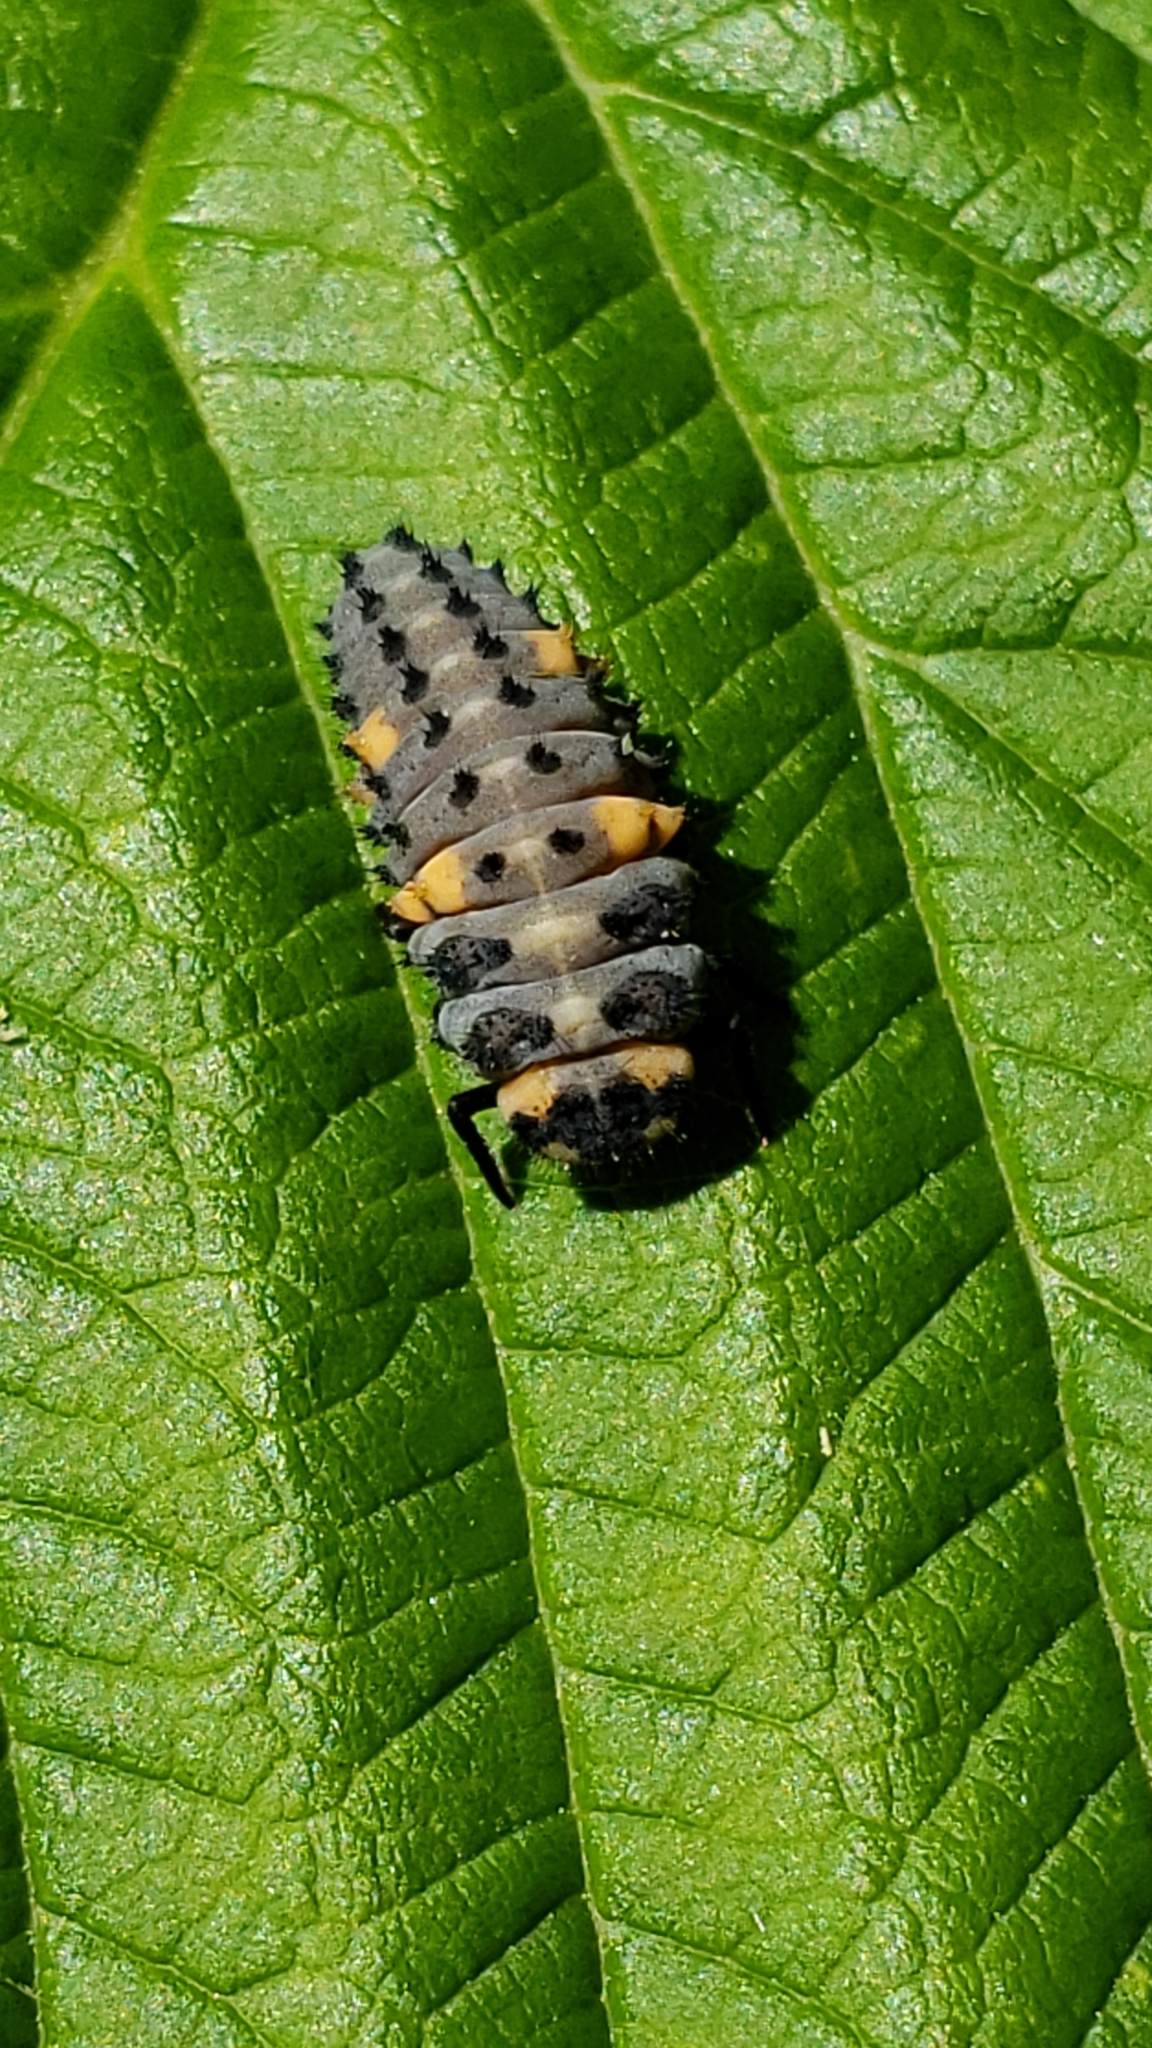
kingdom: Animalia
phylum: Arthropoda
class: Insecta
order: Coleoptera
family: Coccinellidae
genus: Coccinella
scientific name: Coccinella septempunctata
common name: Sevenspotted lady beetle
